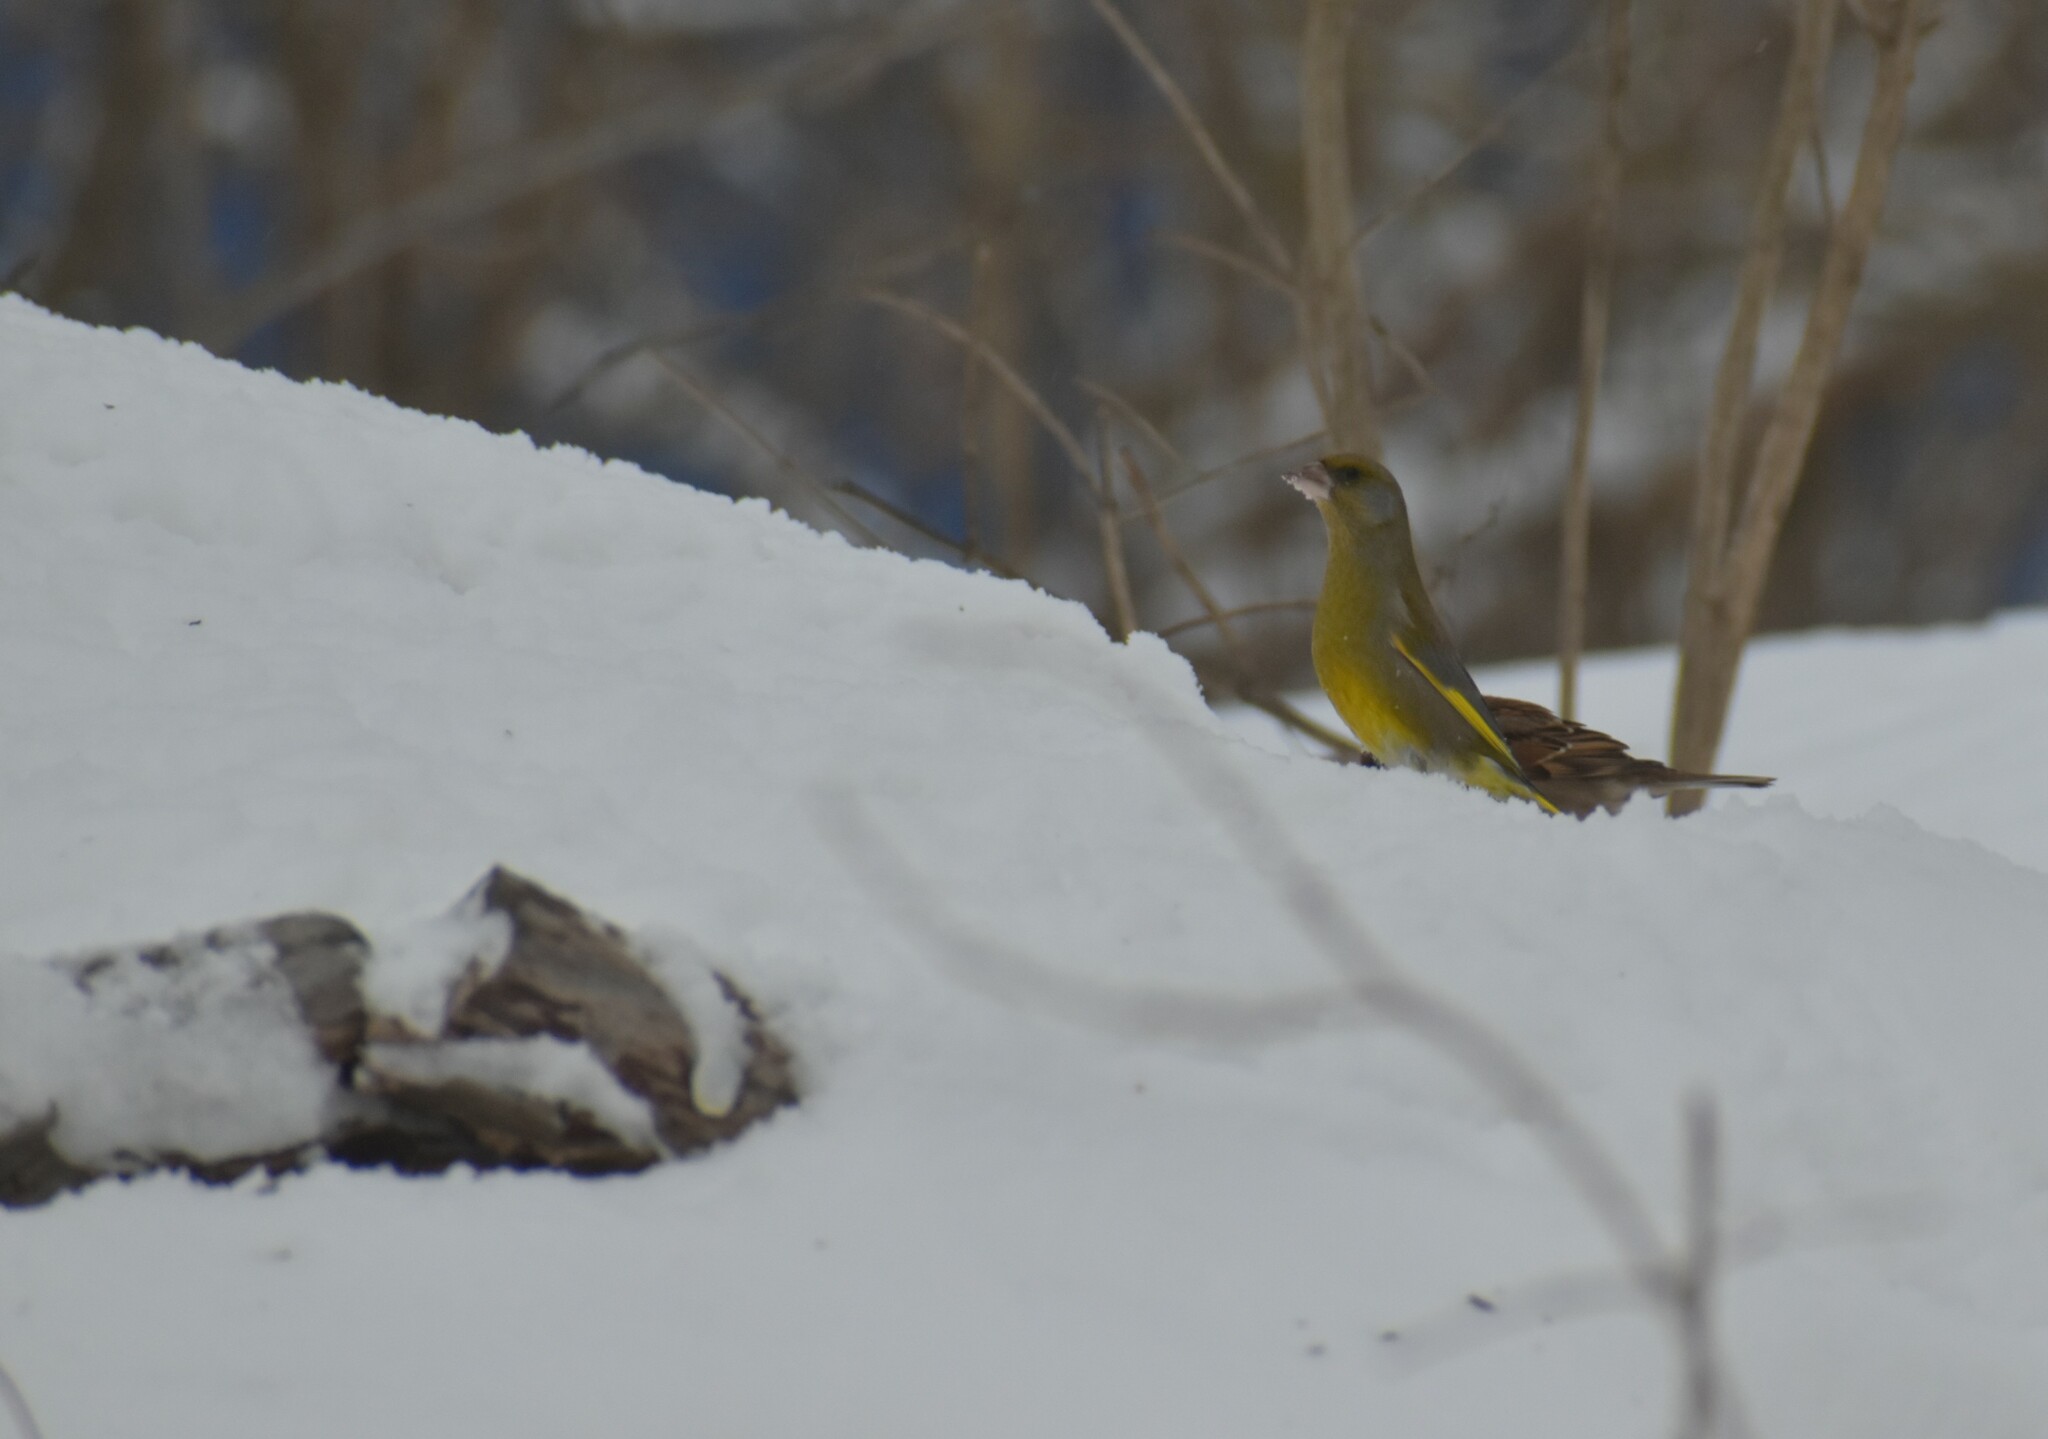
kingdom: Plantae
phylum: Tracheophyta
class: Liliopsida
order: Poales
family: Poaceae
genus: Chloris
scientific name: Chloris chloris
